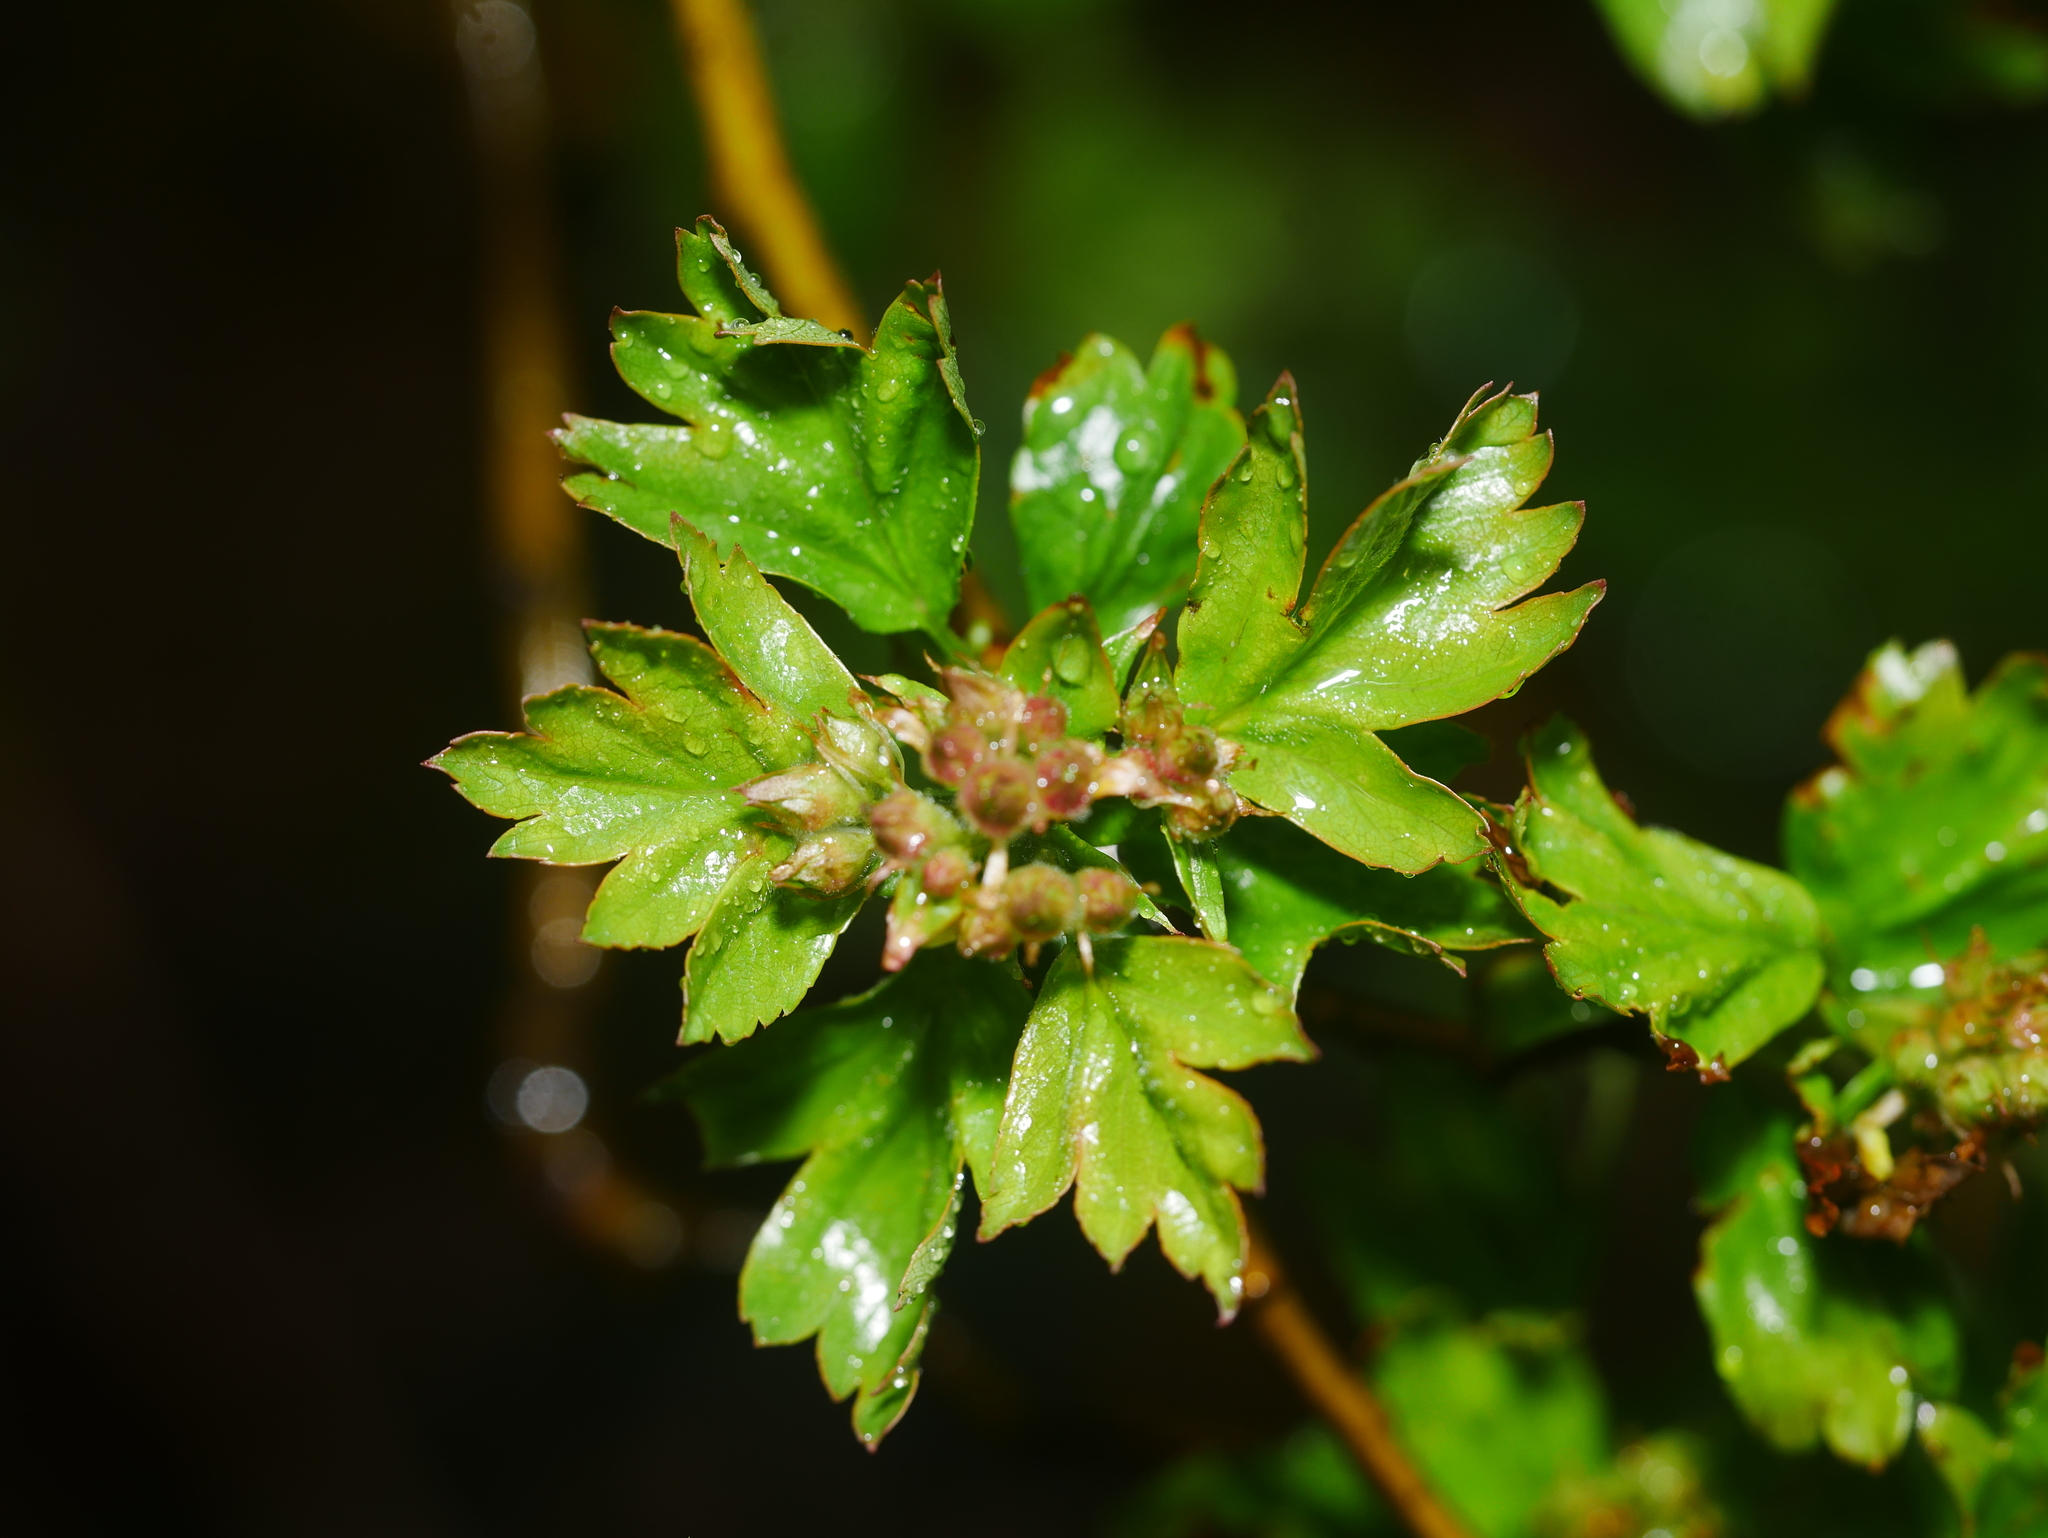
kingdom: Plantae
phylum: Tracheophyta
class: Magnoliopsida
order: Rosales
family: Rosaceae
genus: Crataegus
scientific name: Crataegus monogyna
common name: Hawthorn
